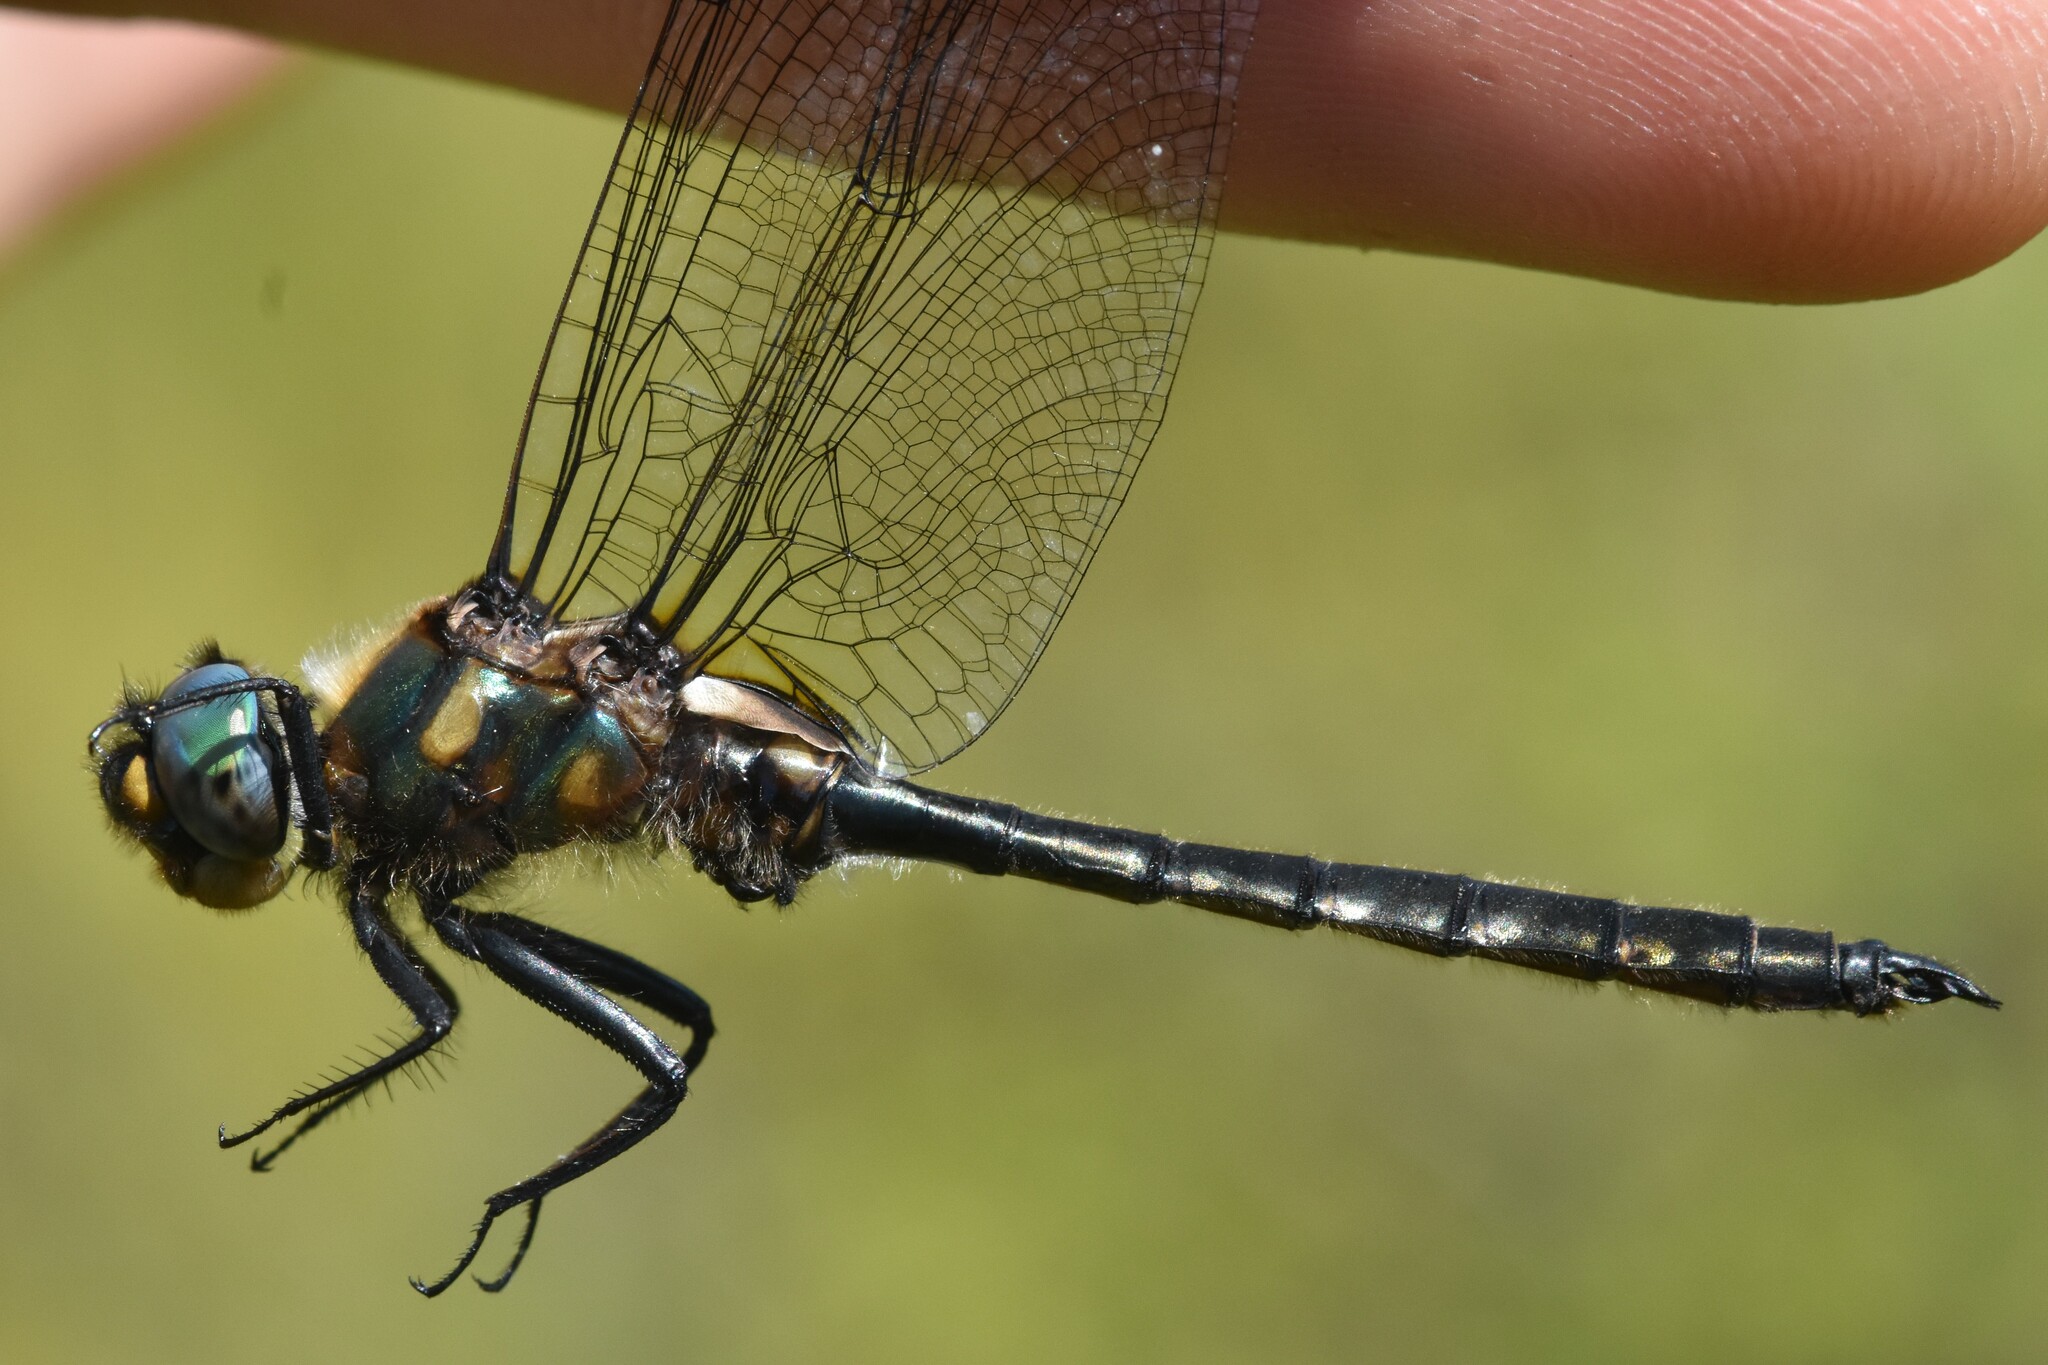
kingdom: Animalia
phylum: Arthropoda
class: Insecta
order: Odonata
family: Corduliidae
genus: Somatochlora
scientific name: Somatochlora semicircularis
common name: Mountain emerald
